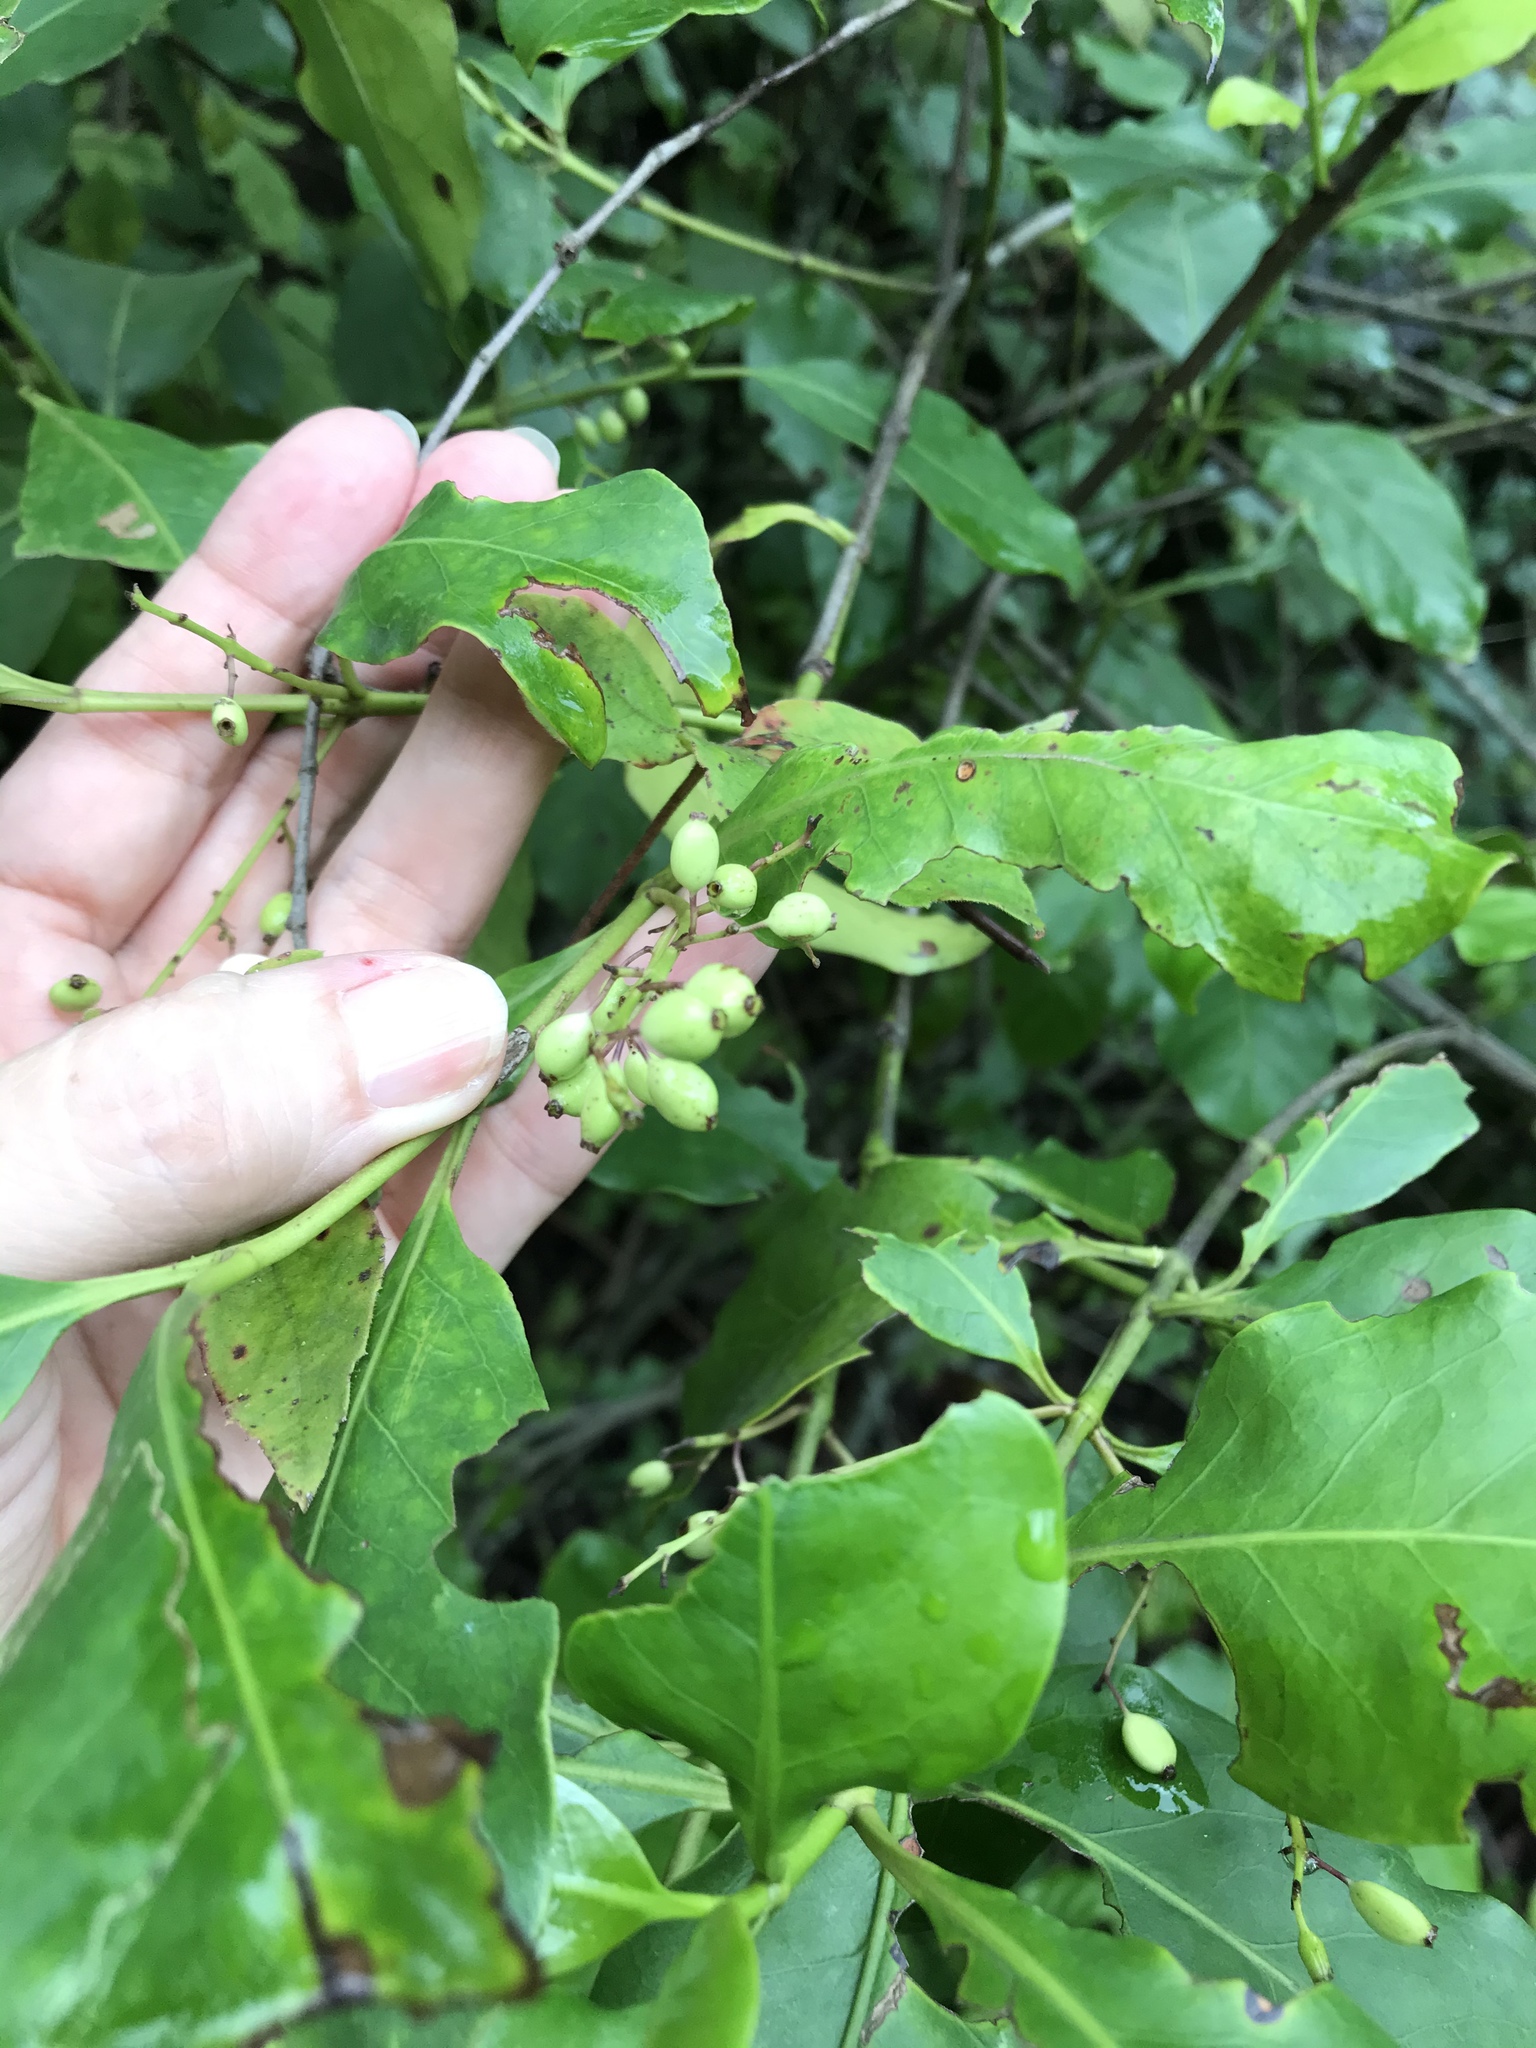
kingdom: Plantae
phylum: Tracheophyta
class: Magnoliopsida
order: Gentianales
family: Rubiaceae
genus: Chiococca
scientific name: Chiococca alba
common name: Snowberry
